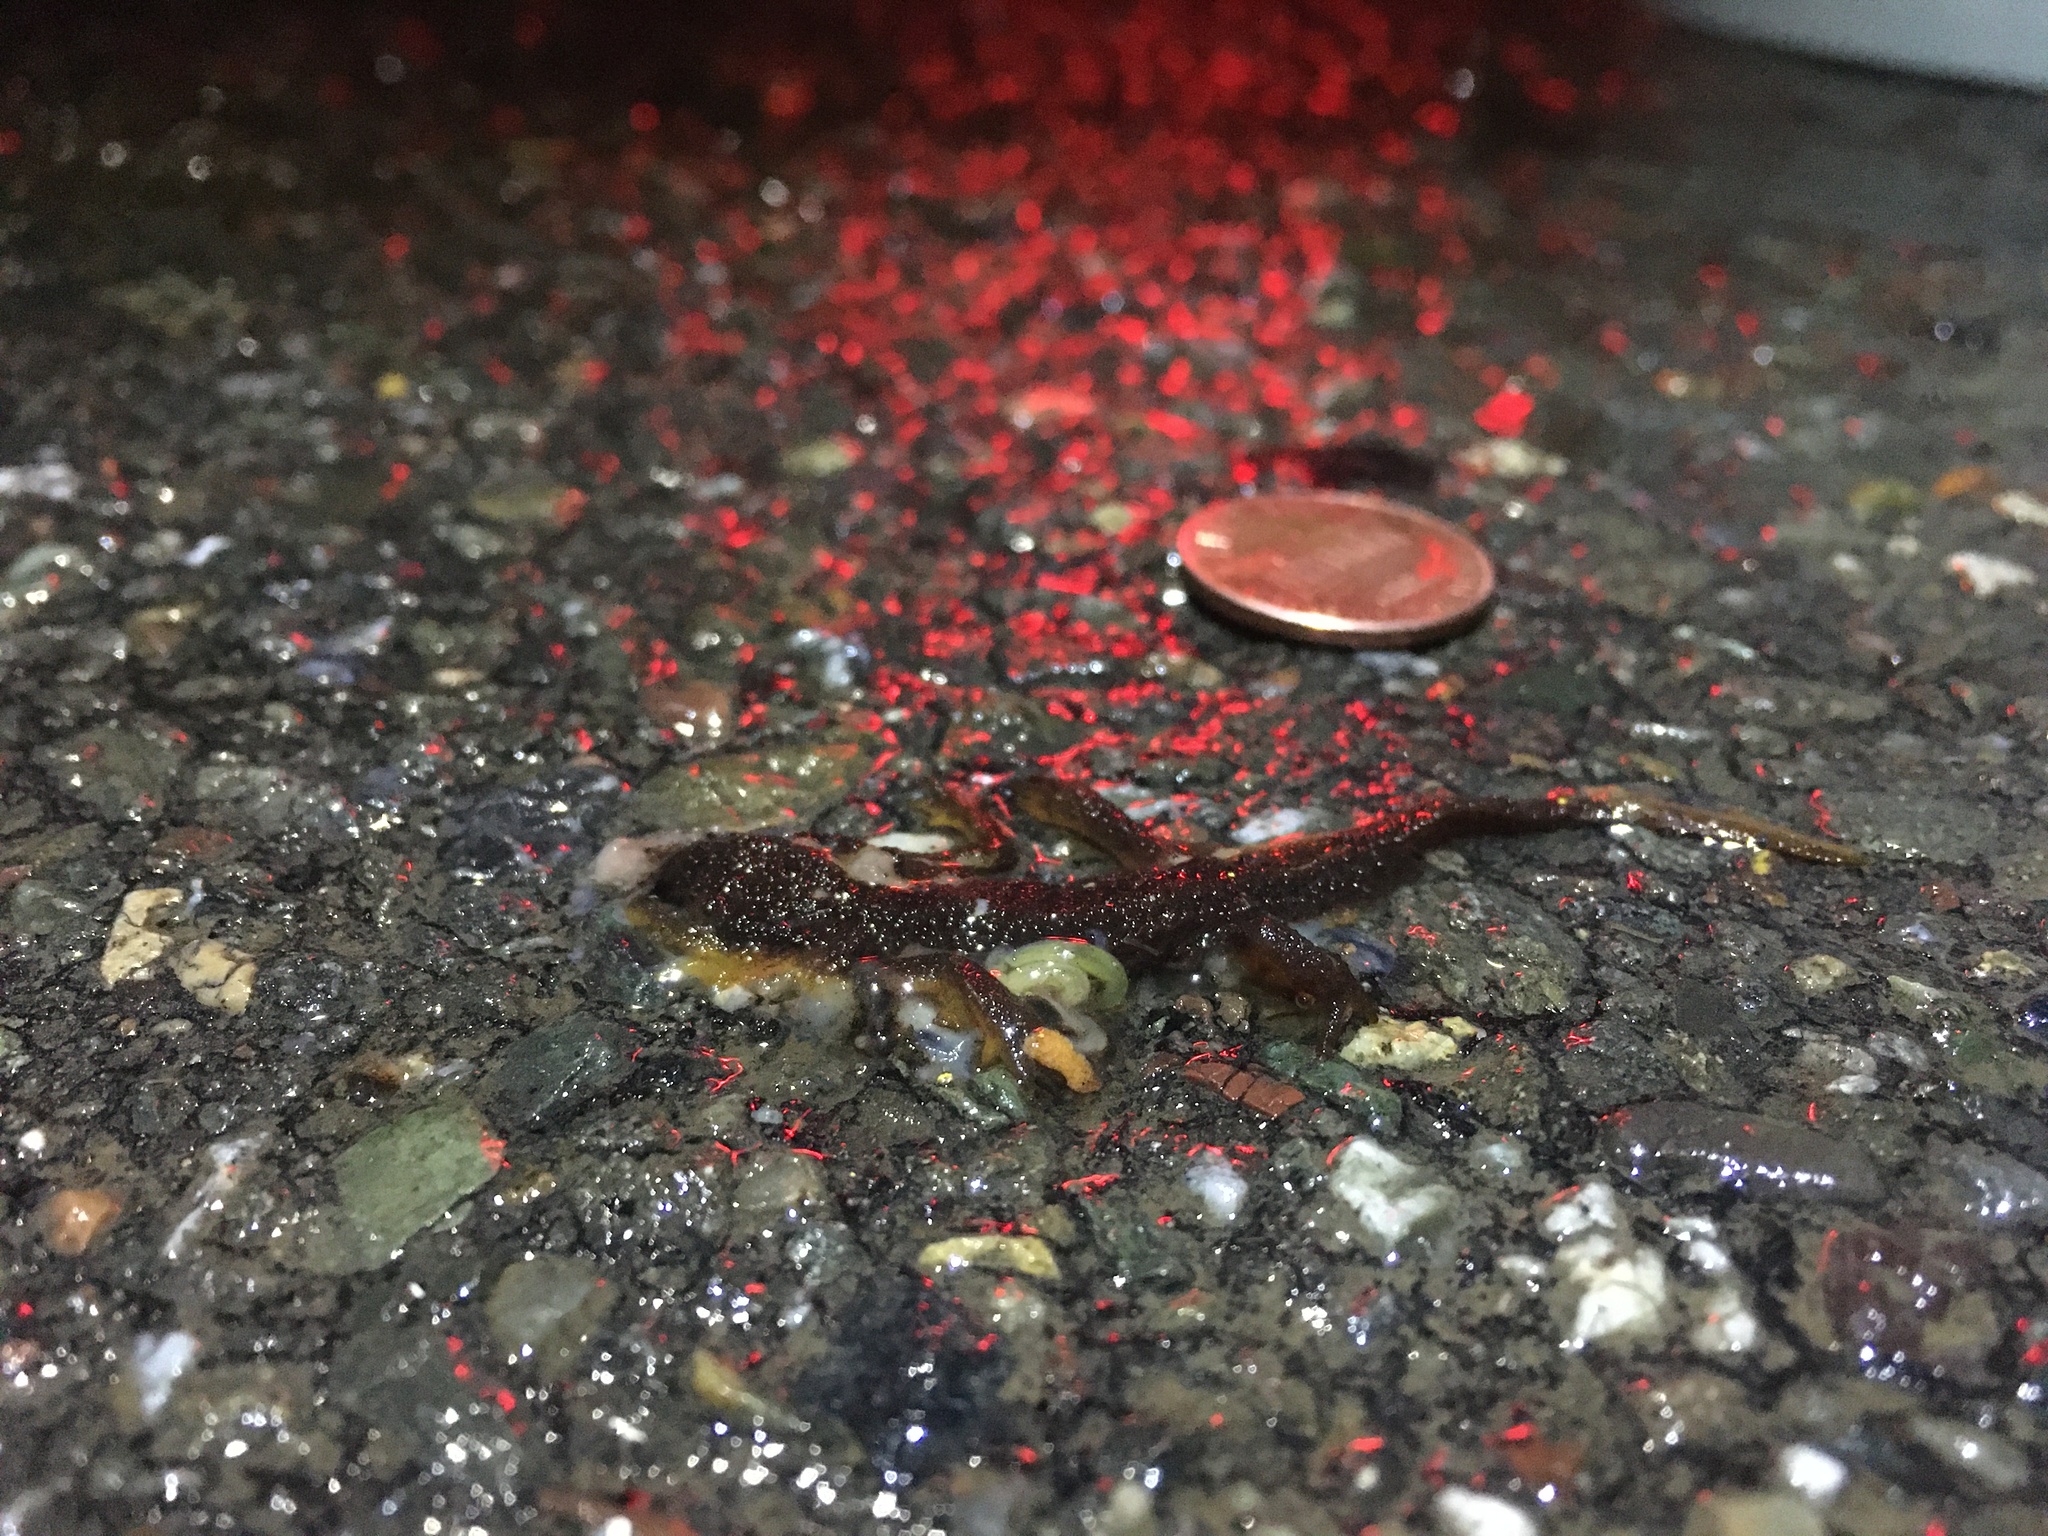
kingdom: Animalia
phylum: Chordata
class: Amphibia
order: Caudata
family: Salamandridae
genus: Taricha
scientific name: Taricha
